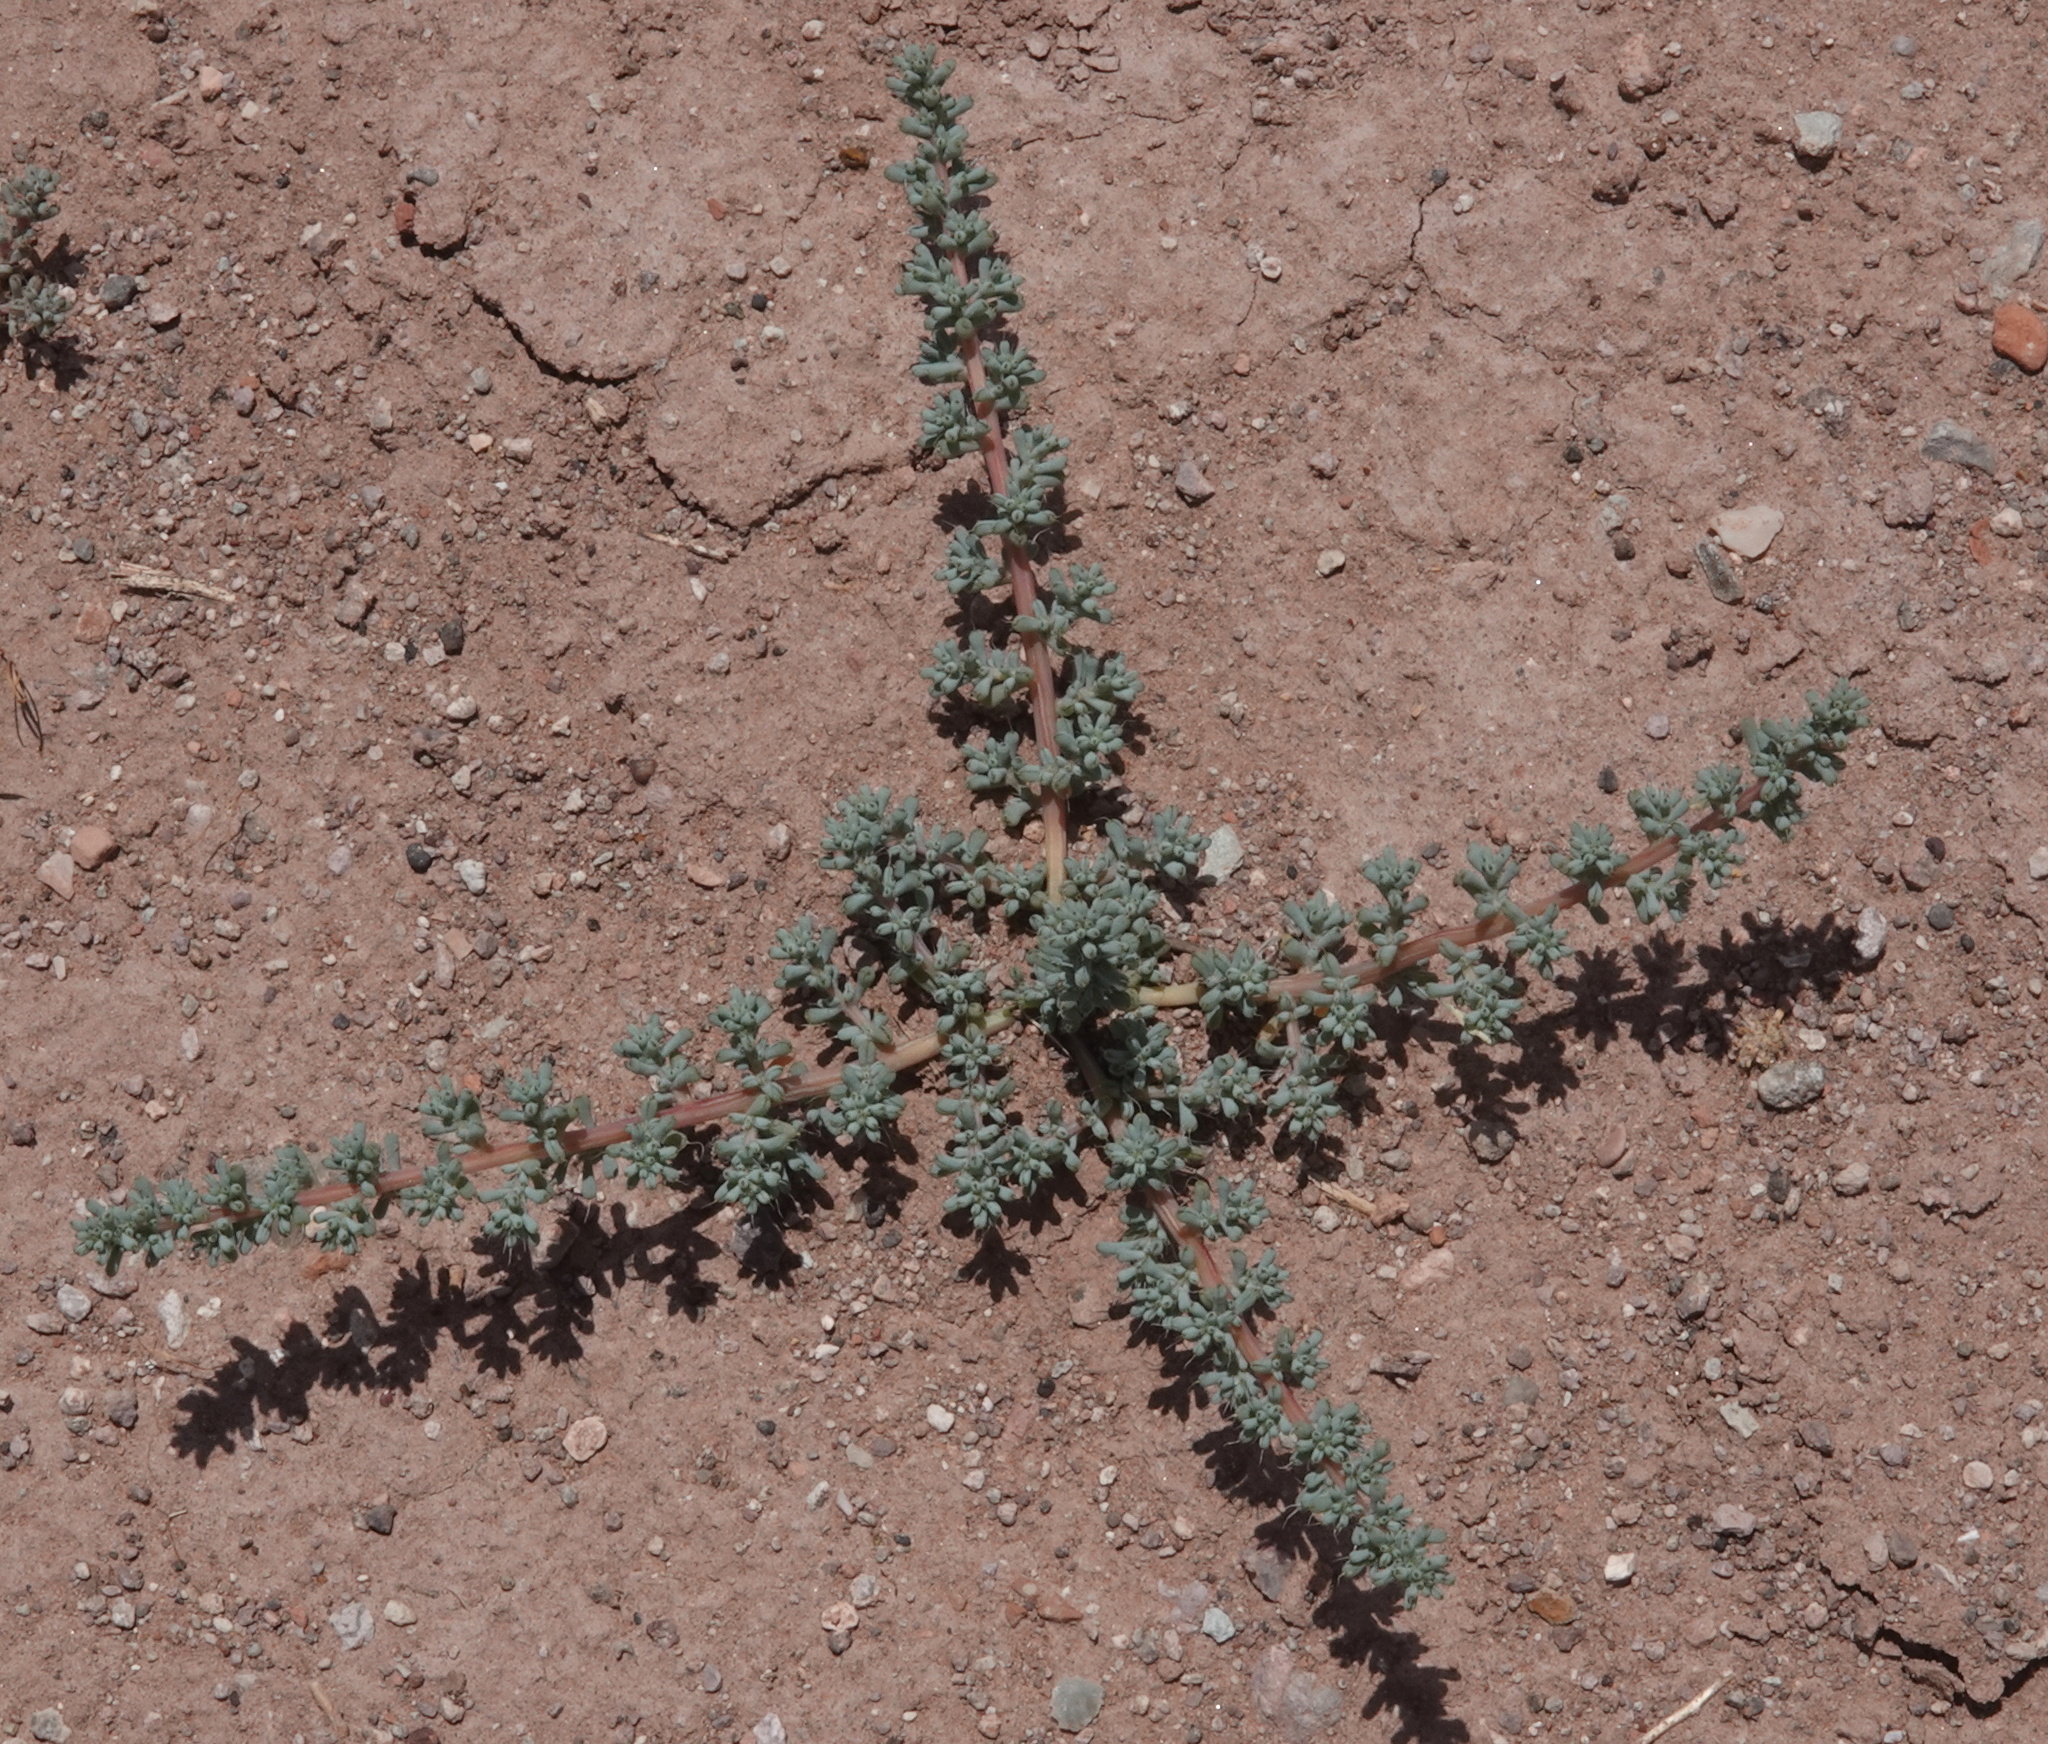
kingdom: Plantae
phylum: Tracheophyta
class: Magnoliopsida
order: Caryophyllales
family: Amaranthaceae
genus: Halogeton
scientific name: Halogeton glomeratus
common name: Saltlover
